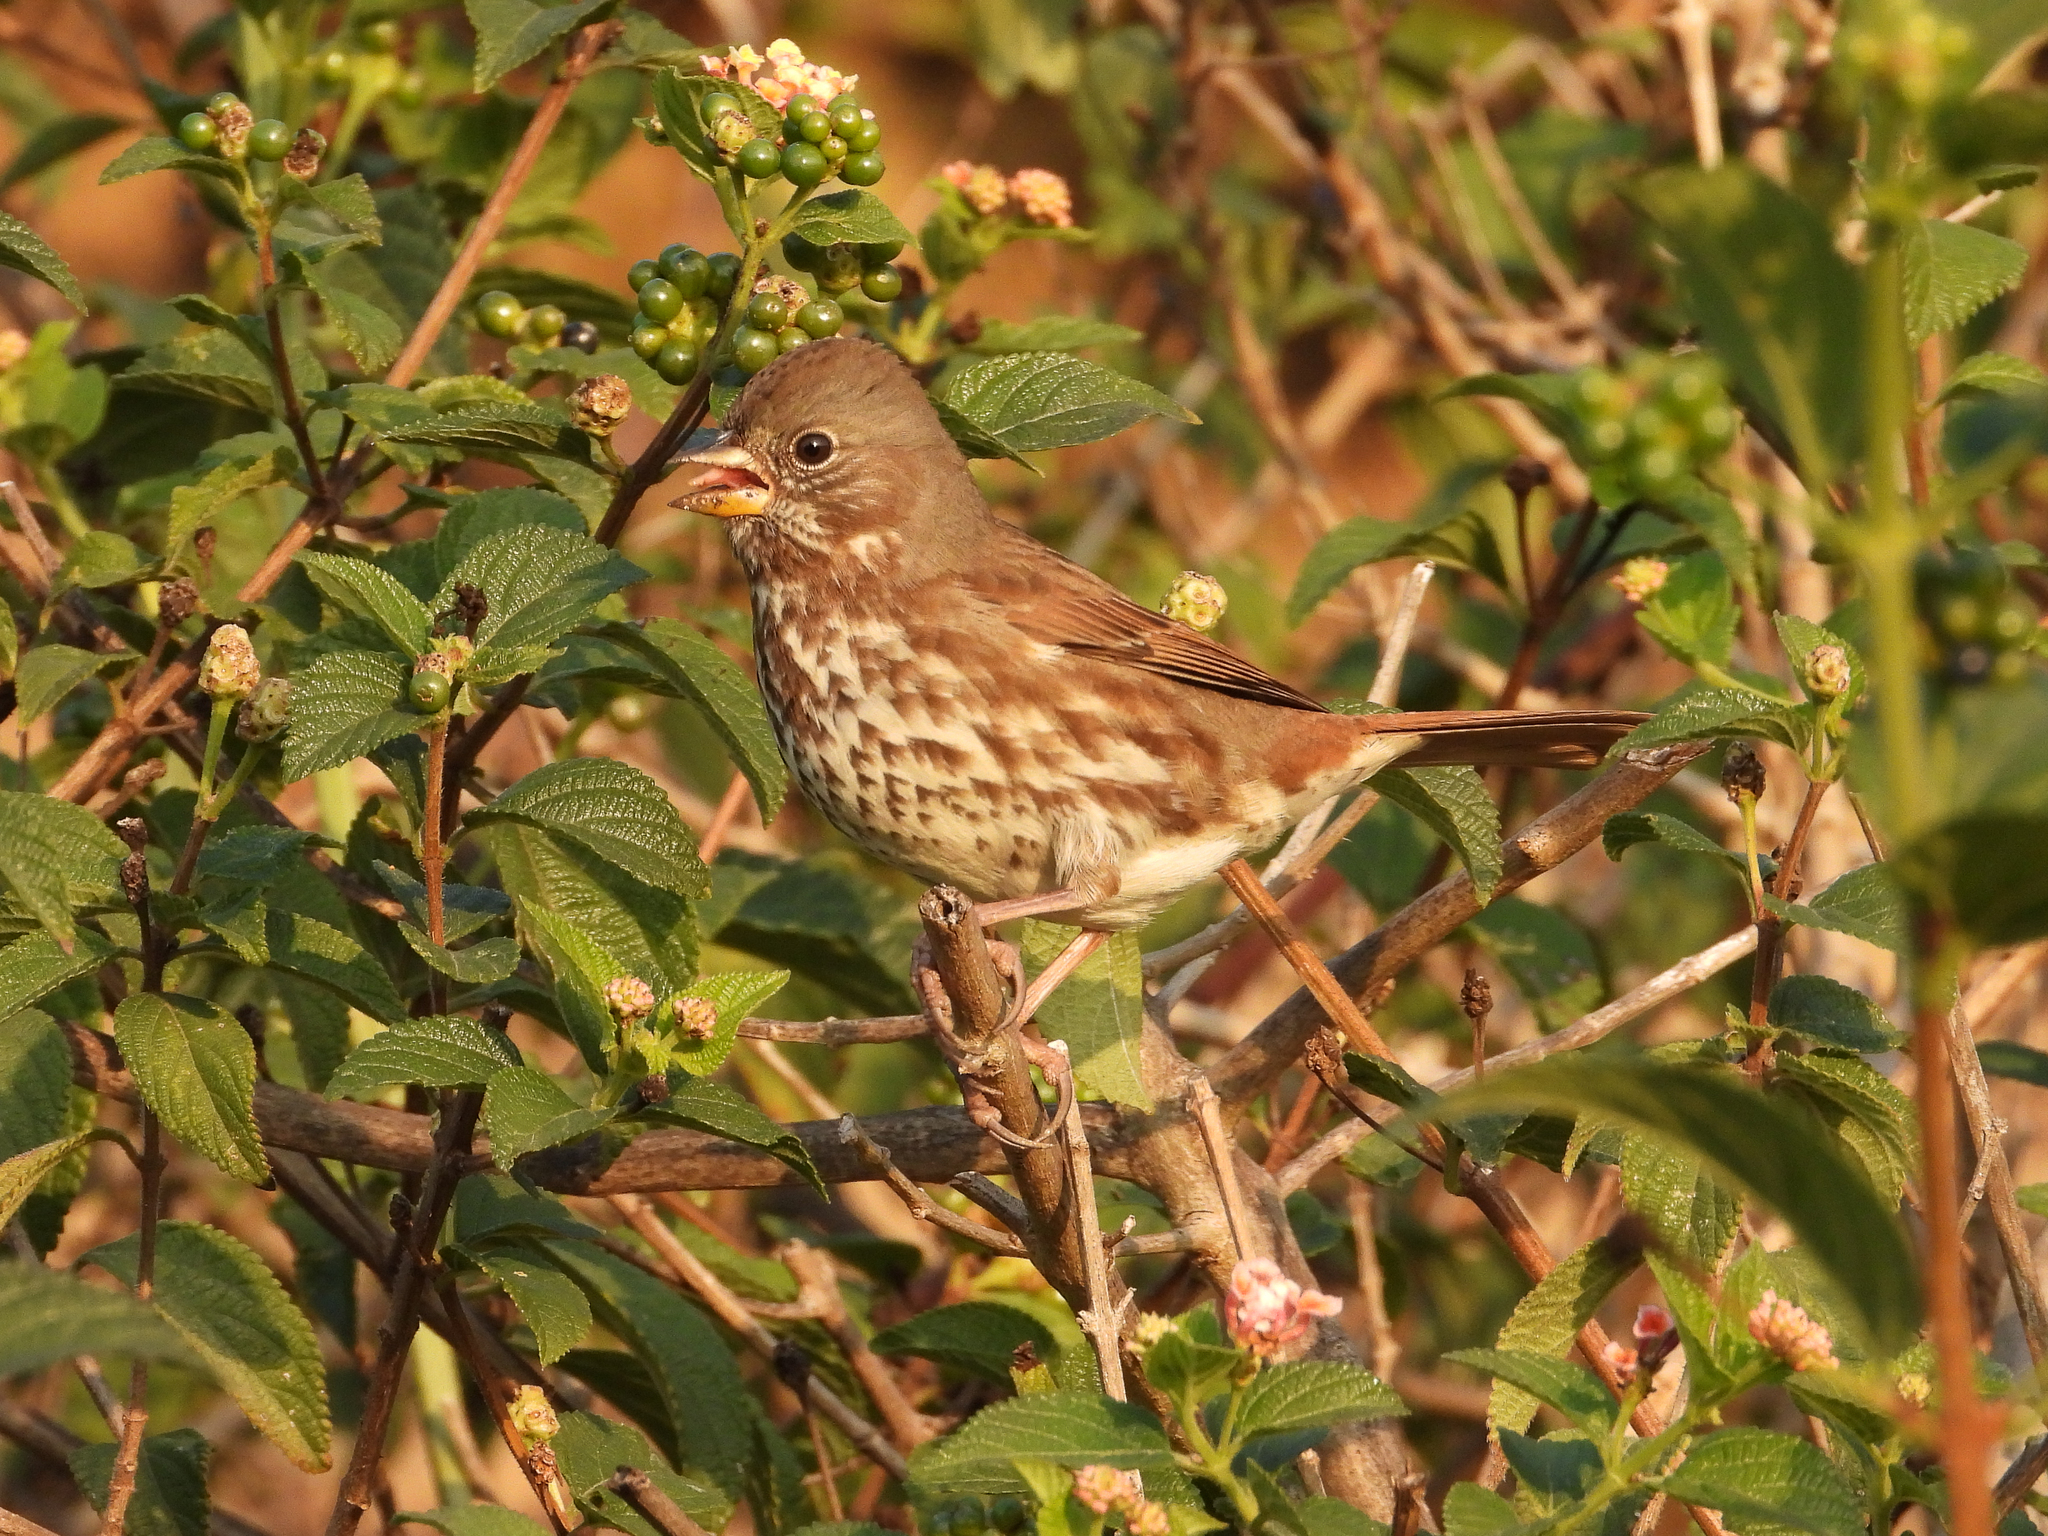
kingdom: Animalia
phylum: Chordata
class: Aves
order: Passeriformes
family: Passerellidae
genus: Passerella
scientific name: Passerella iliaca
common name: Fox sparrow
